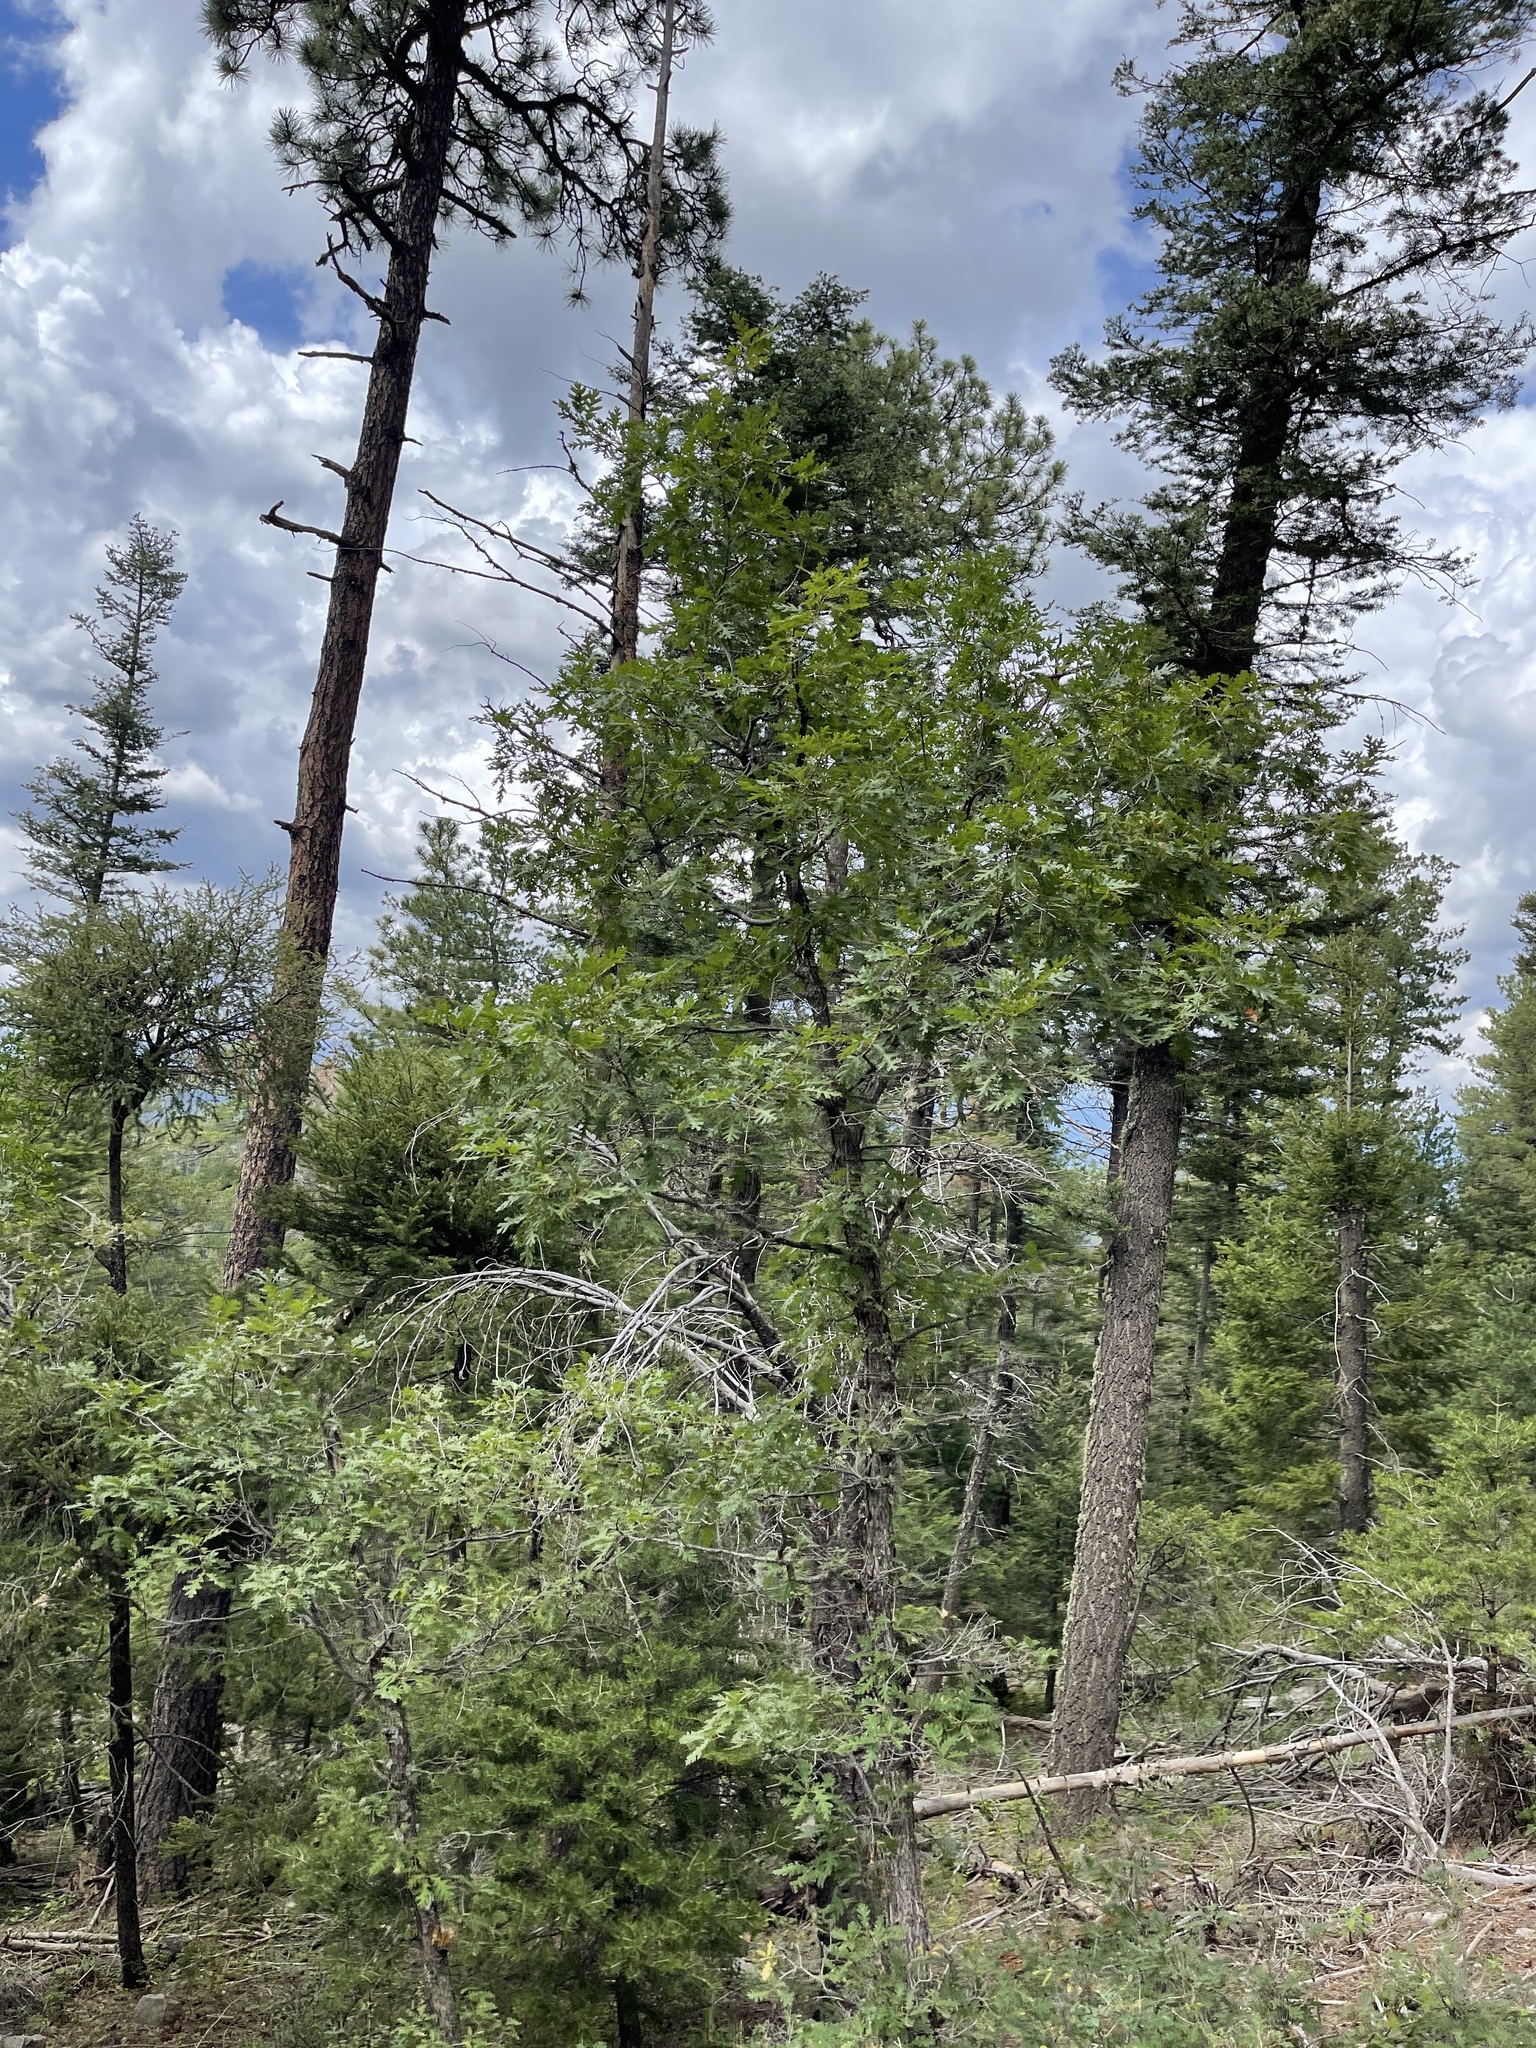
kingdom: Plantae
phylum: Tracheophyta
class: Magnoliopsida
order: Fagales
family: Fagaceae
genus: Quercus
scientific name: Quercus gambelii
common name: Gambel oak
